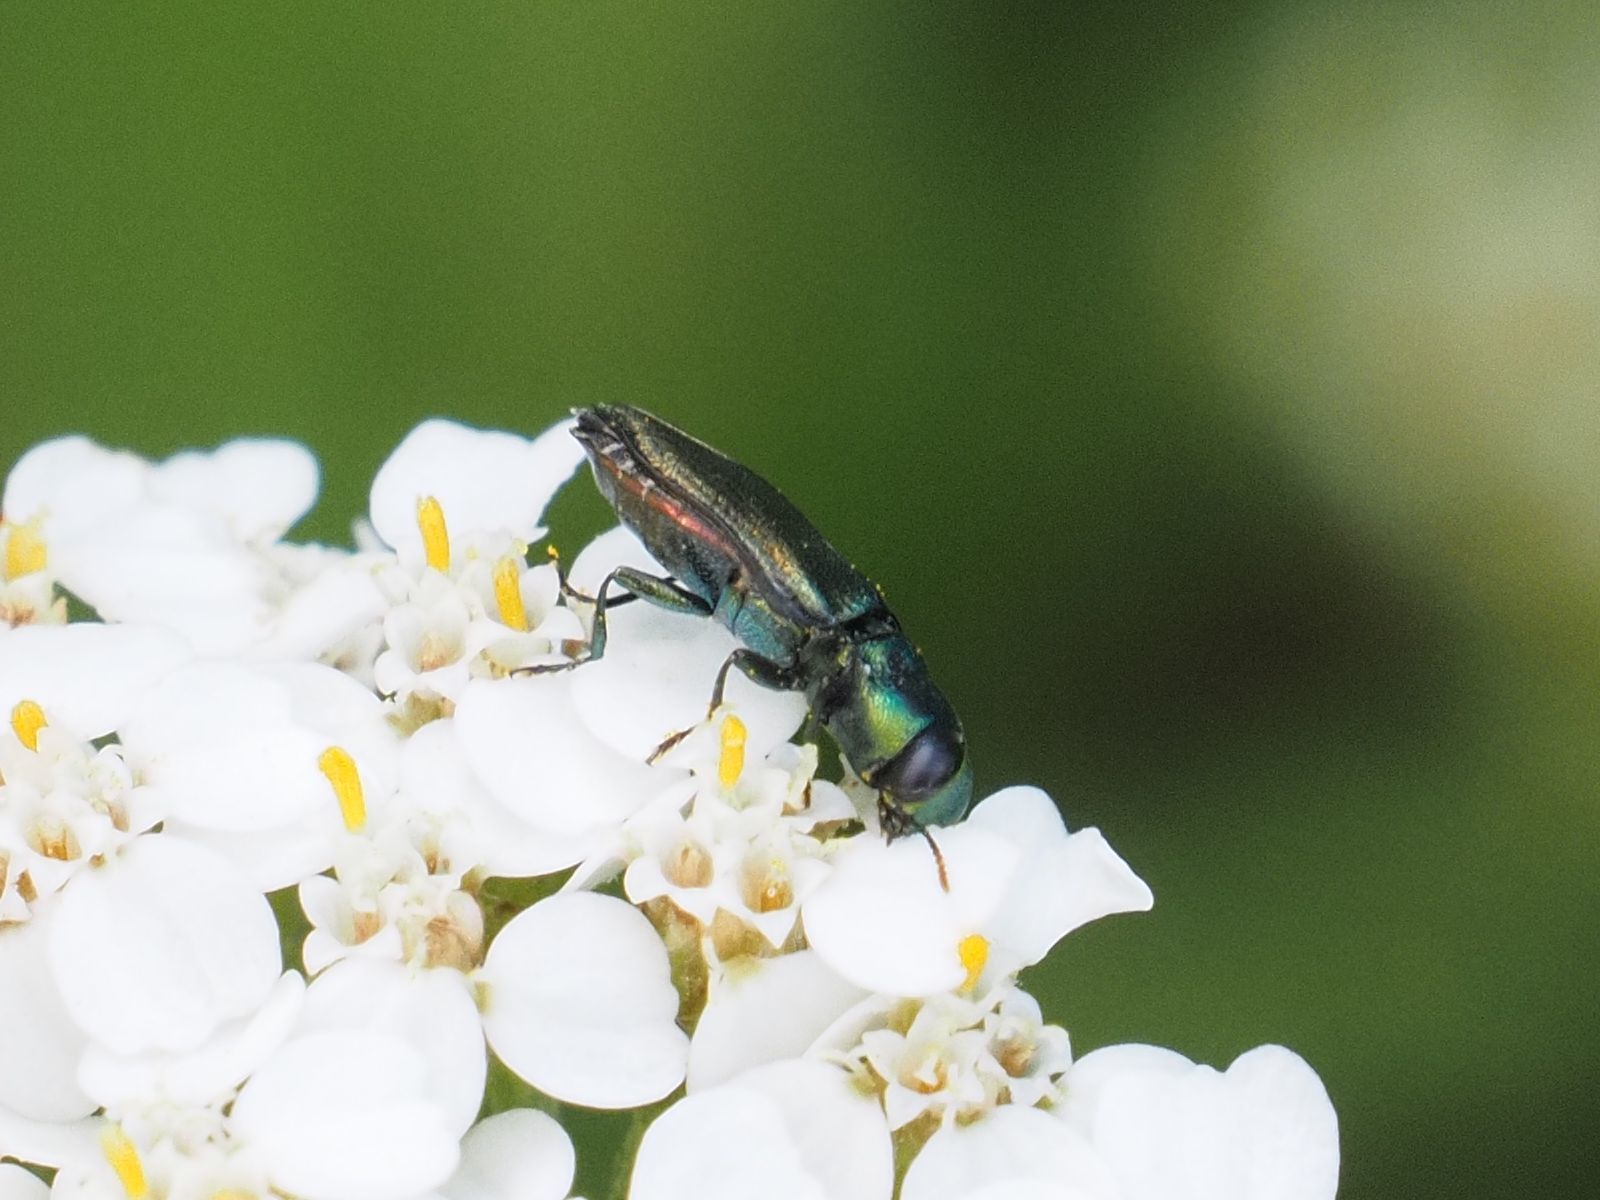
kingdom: Animalia
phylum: Arthropoda
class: Insecta
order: Coleoptera
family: Buprestidae
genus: Anthaxia
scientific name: Anthaxia podolica
